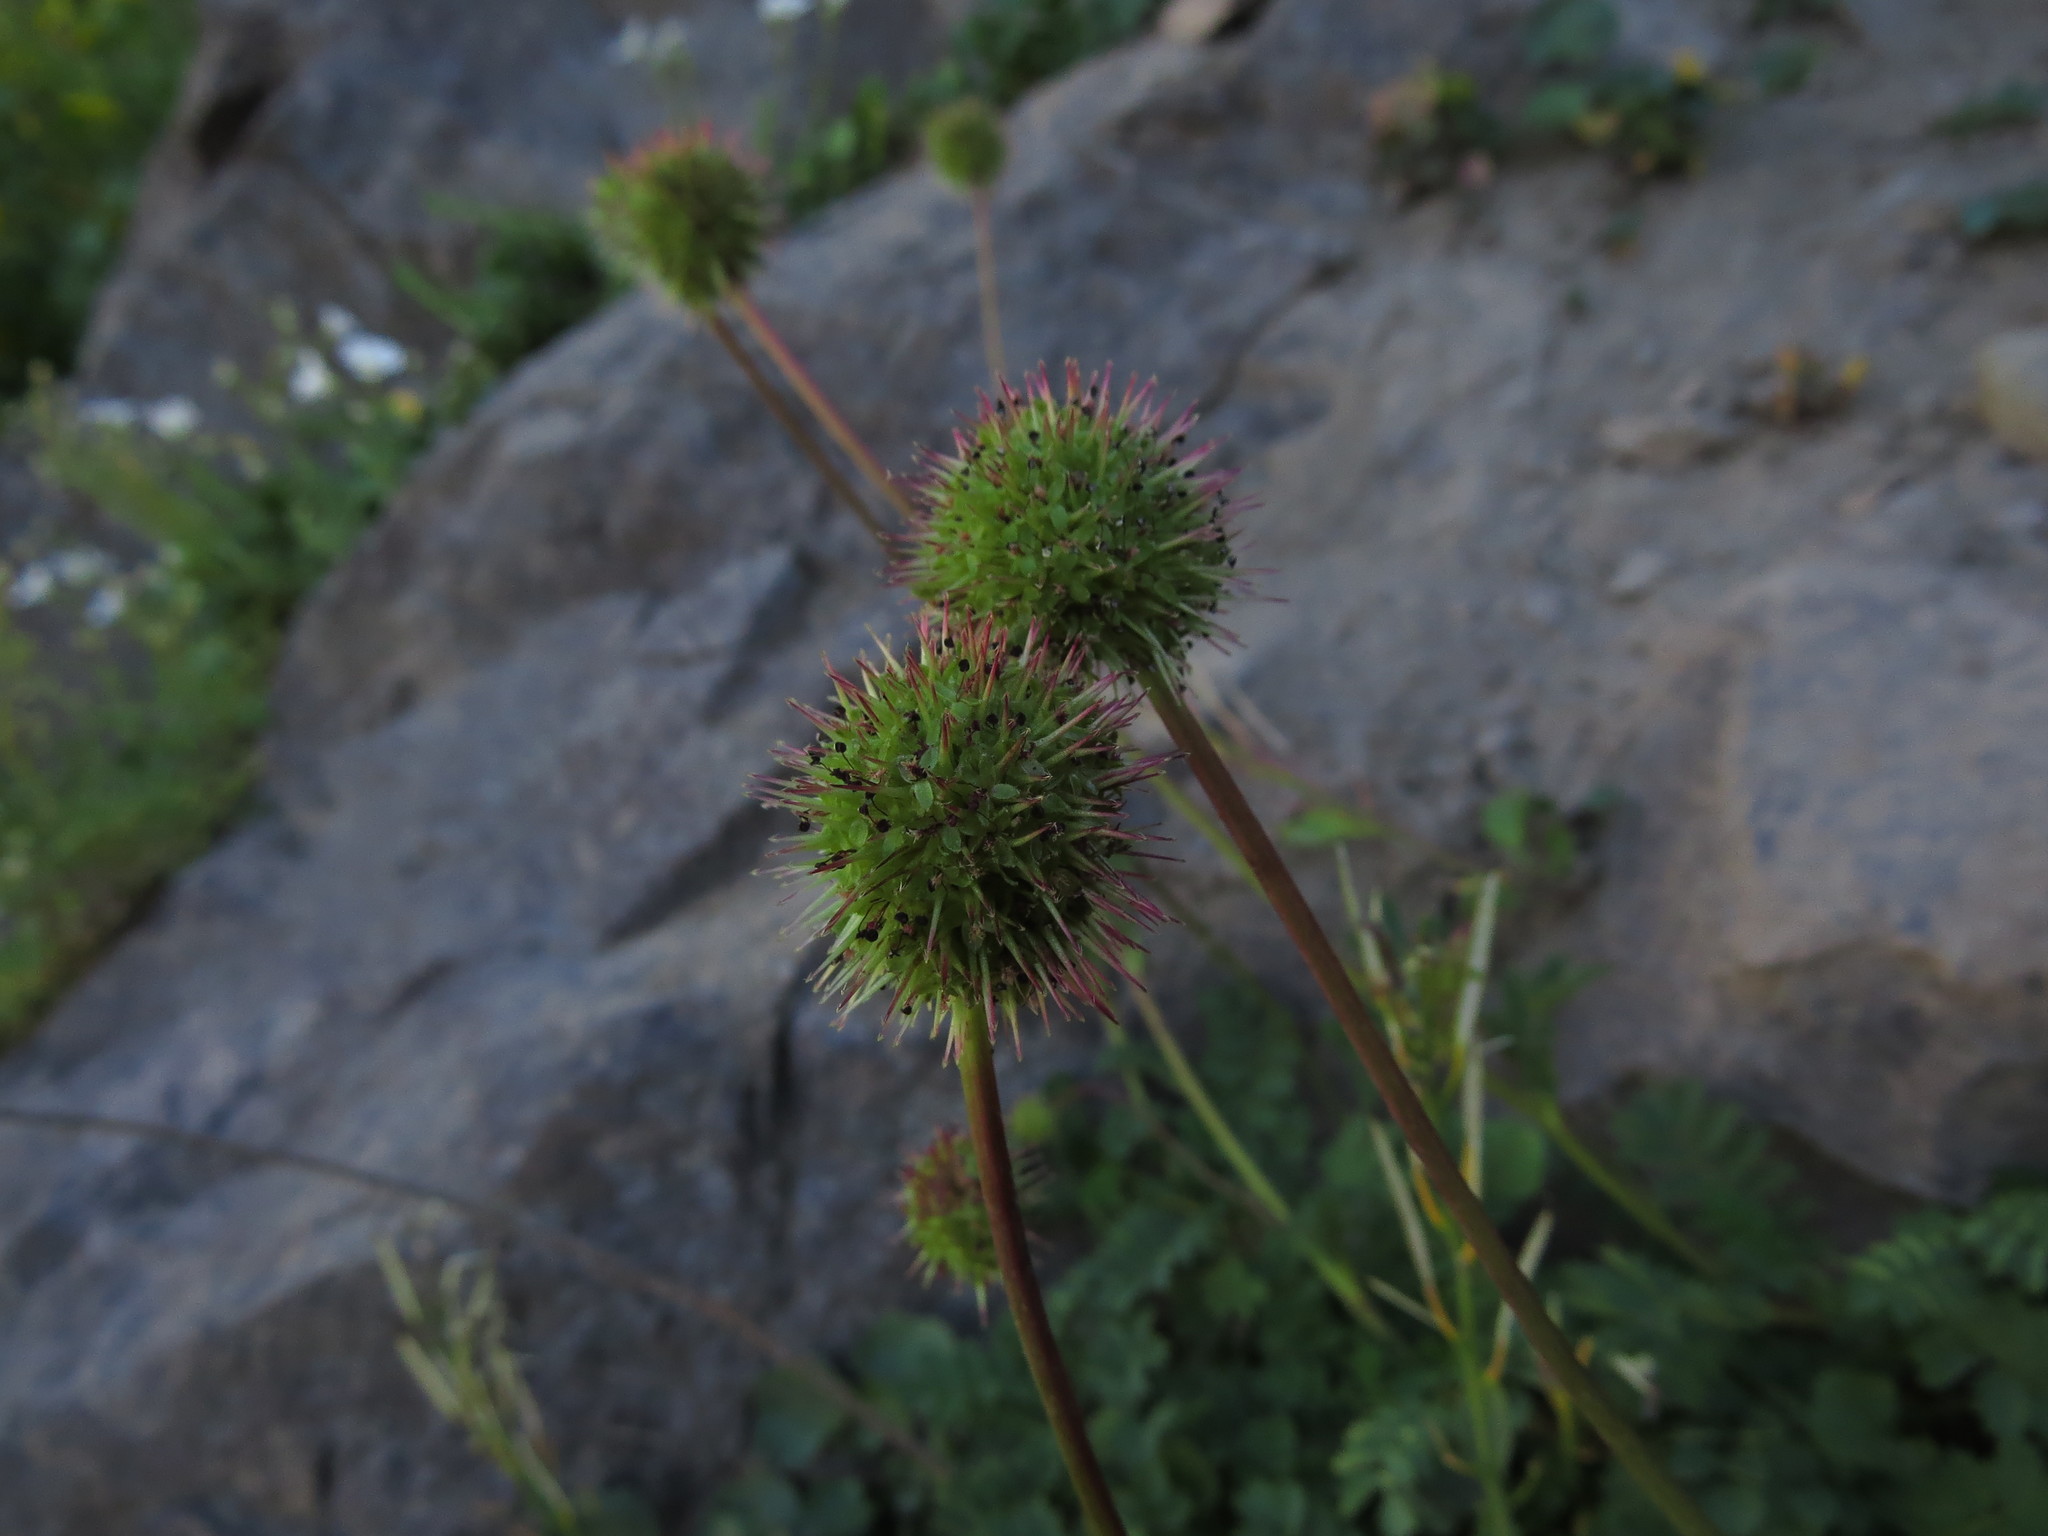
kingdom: Plantae
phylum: Tracheophyta
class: Magnoliopsida
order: Rosales
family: Rosaceae
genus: Acaena
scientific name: Acaena magellanica
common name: New zealand burr
